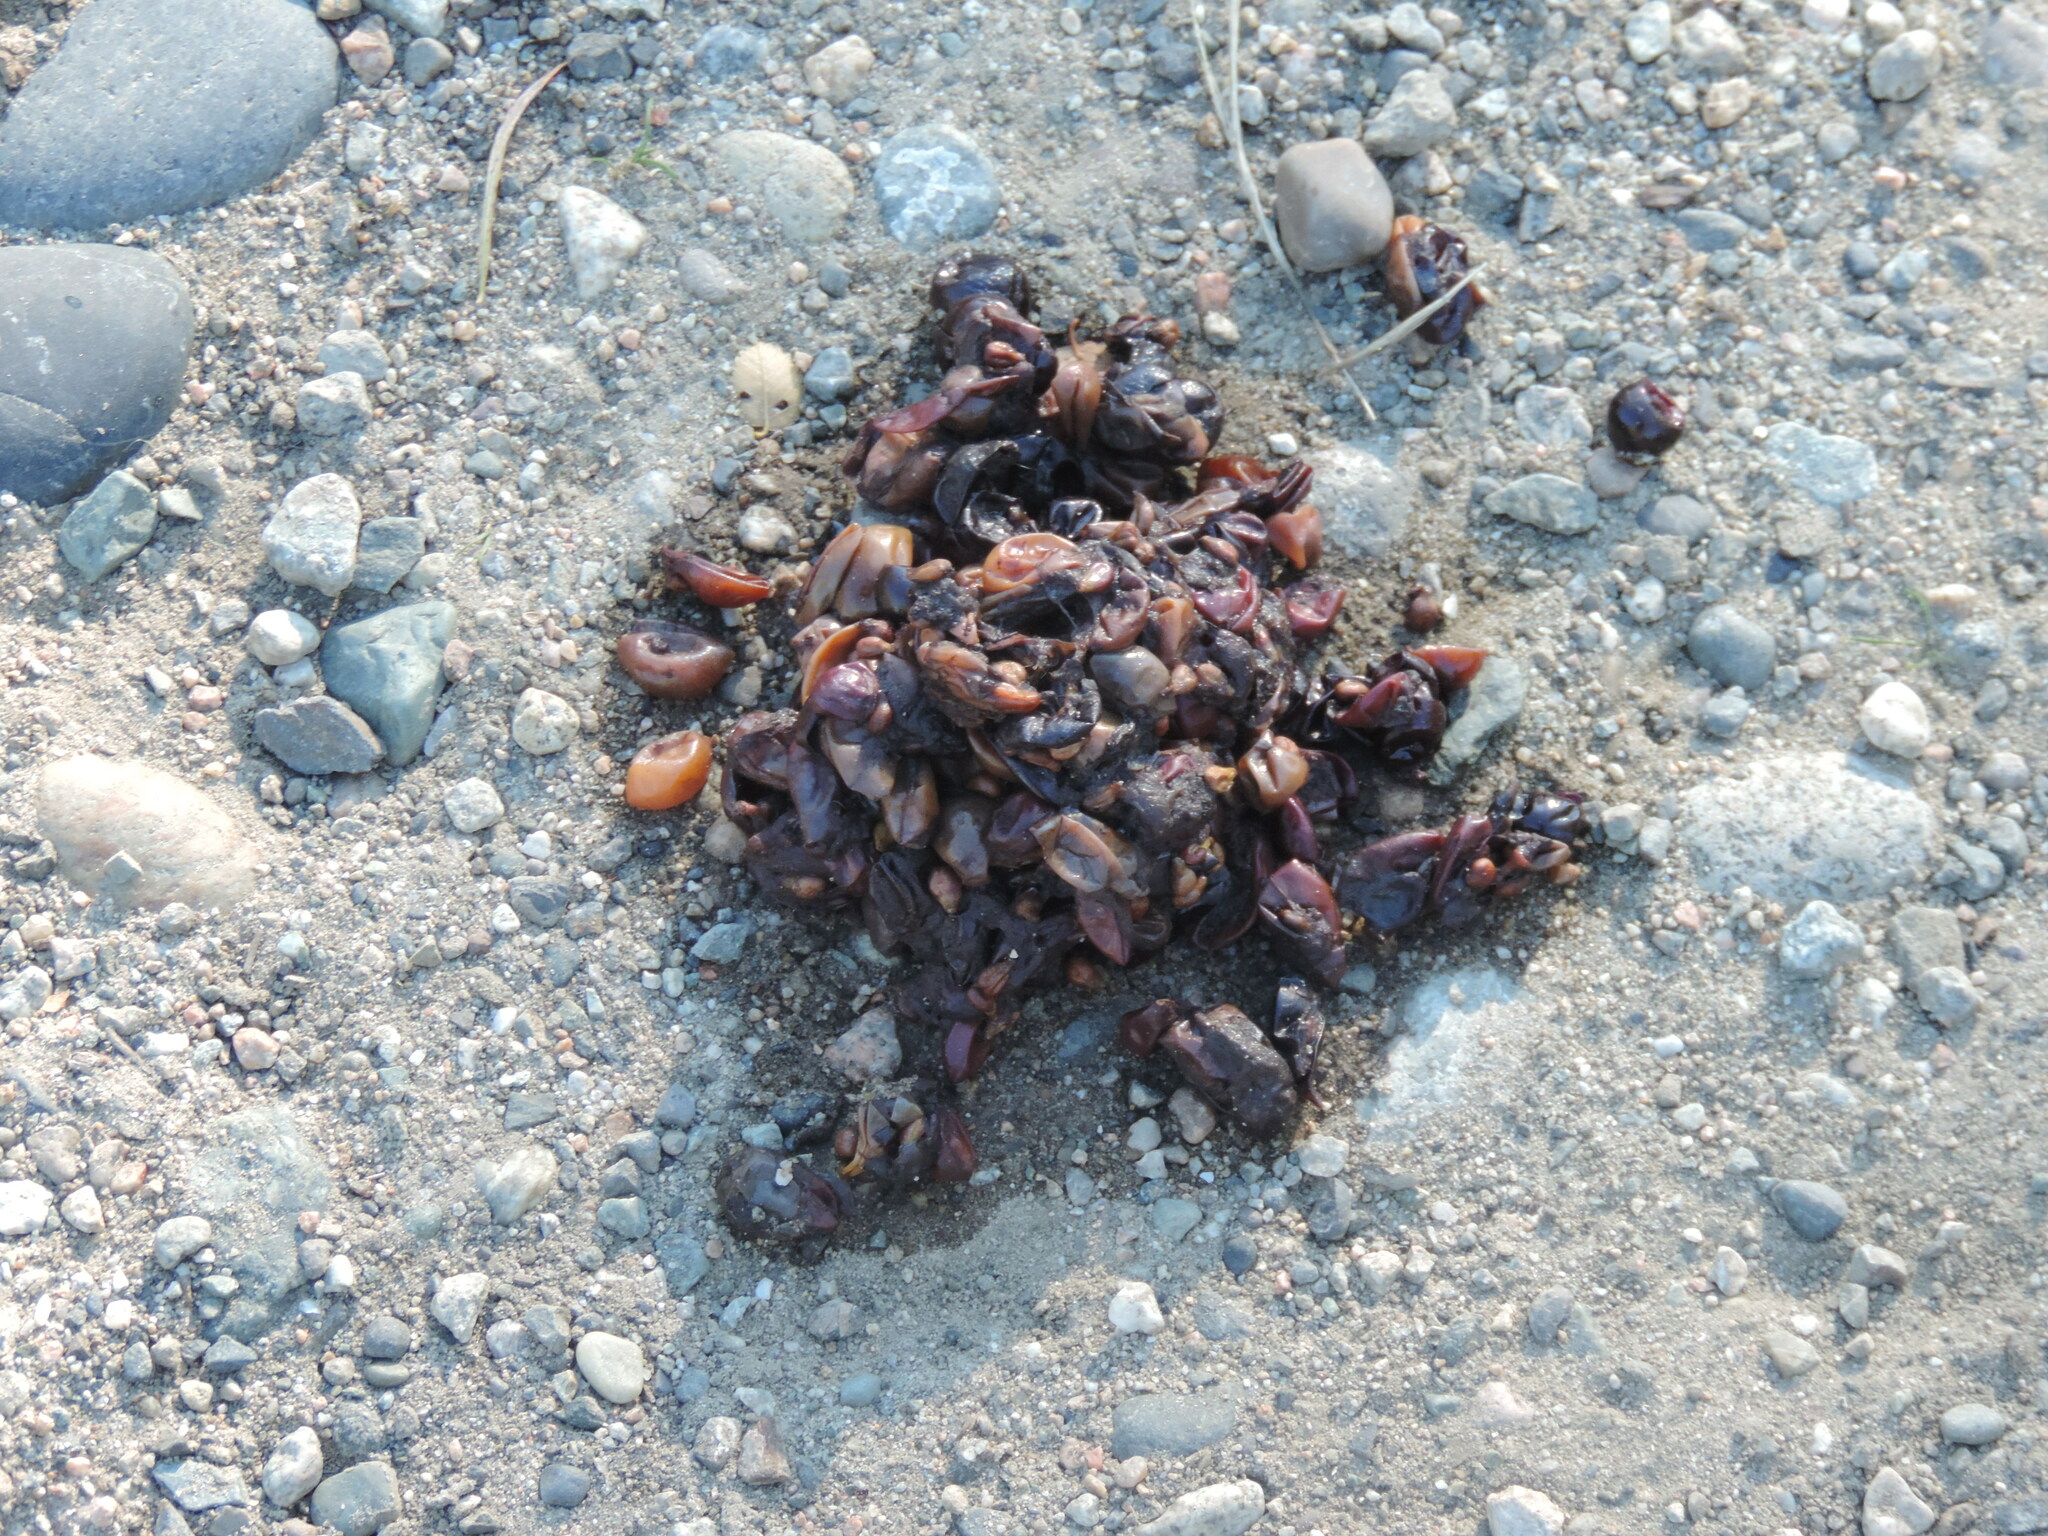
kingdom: Animalia
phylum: Chordata
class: Mammalia
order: Carnivora
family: Ursidae
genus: Ursus
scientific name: Ursus americanus
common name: American black bear
